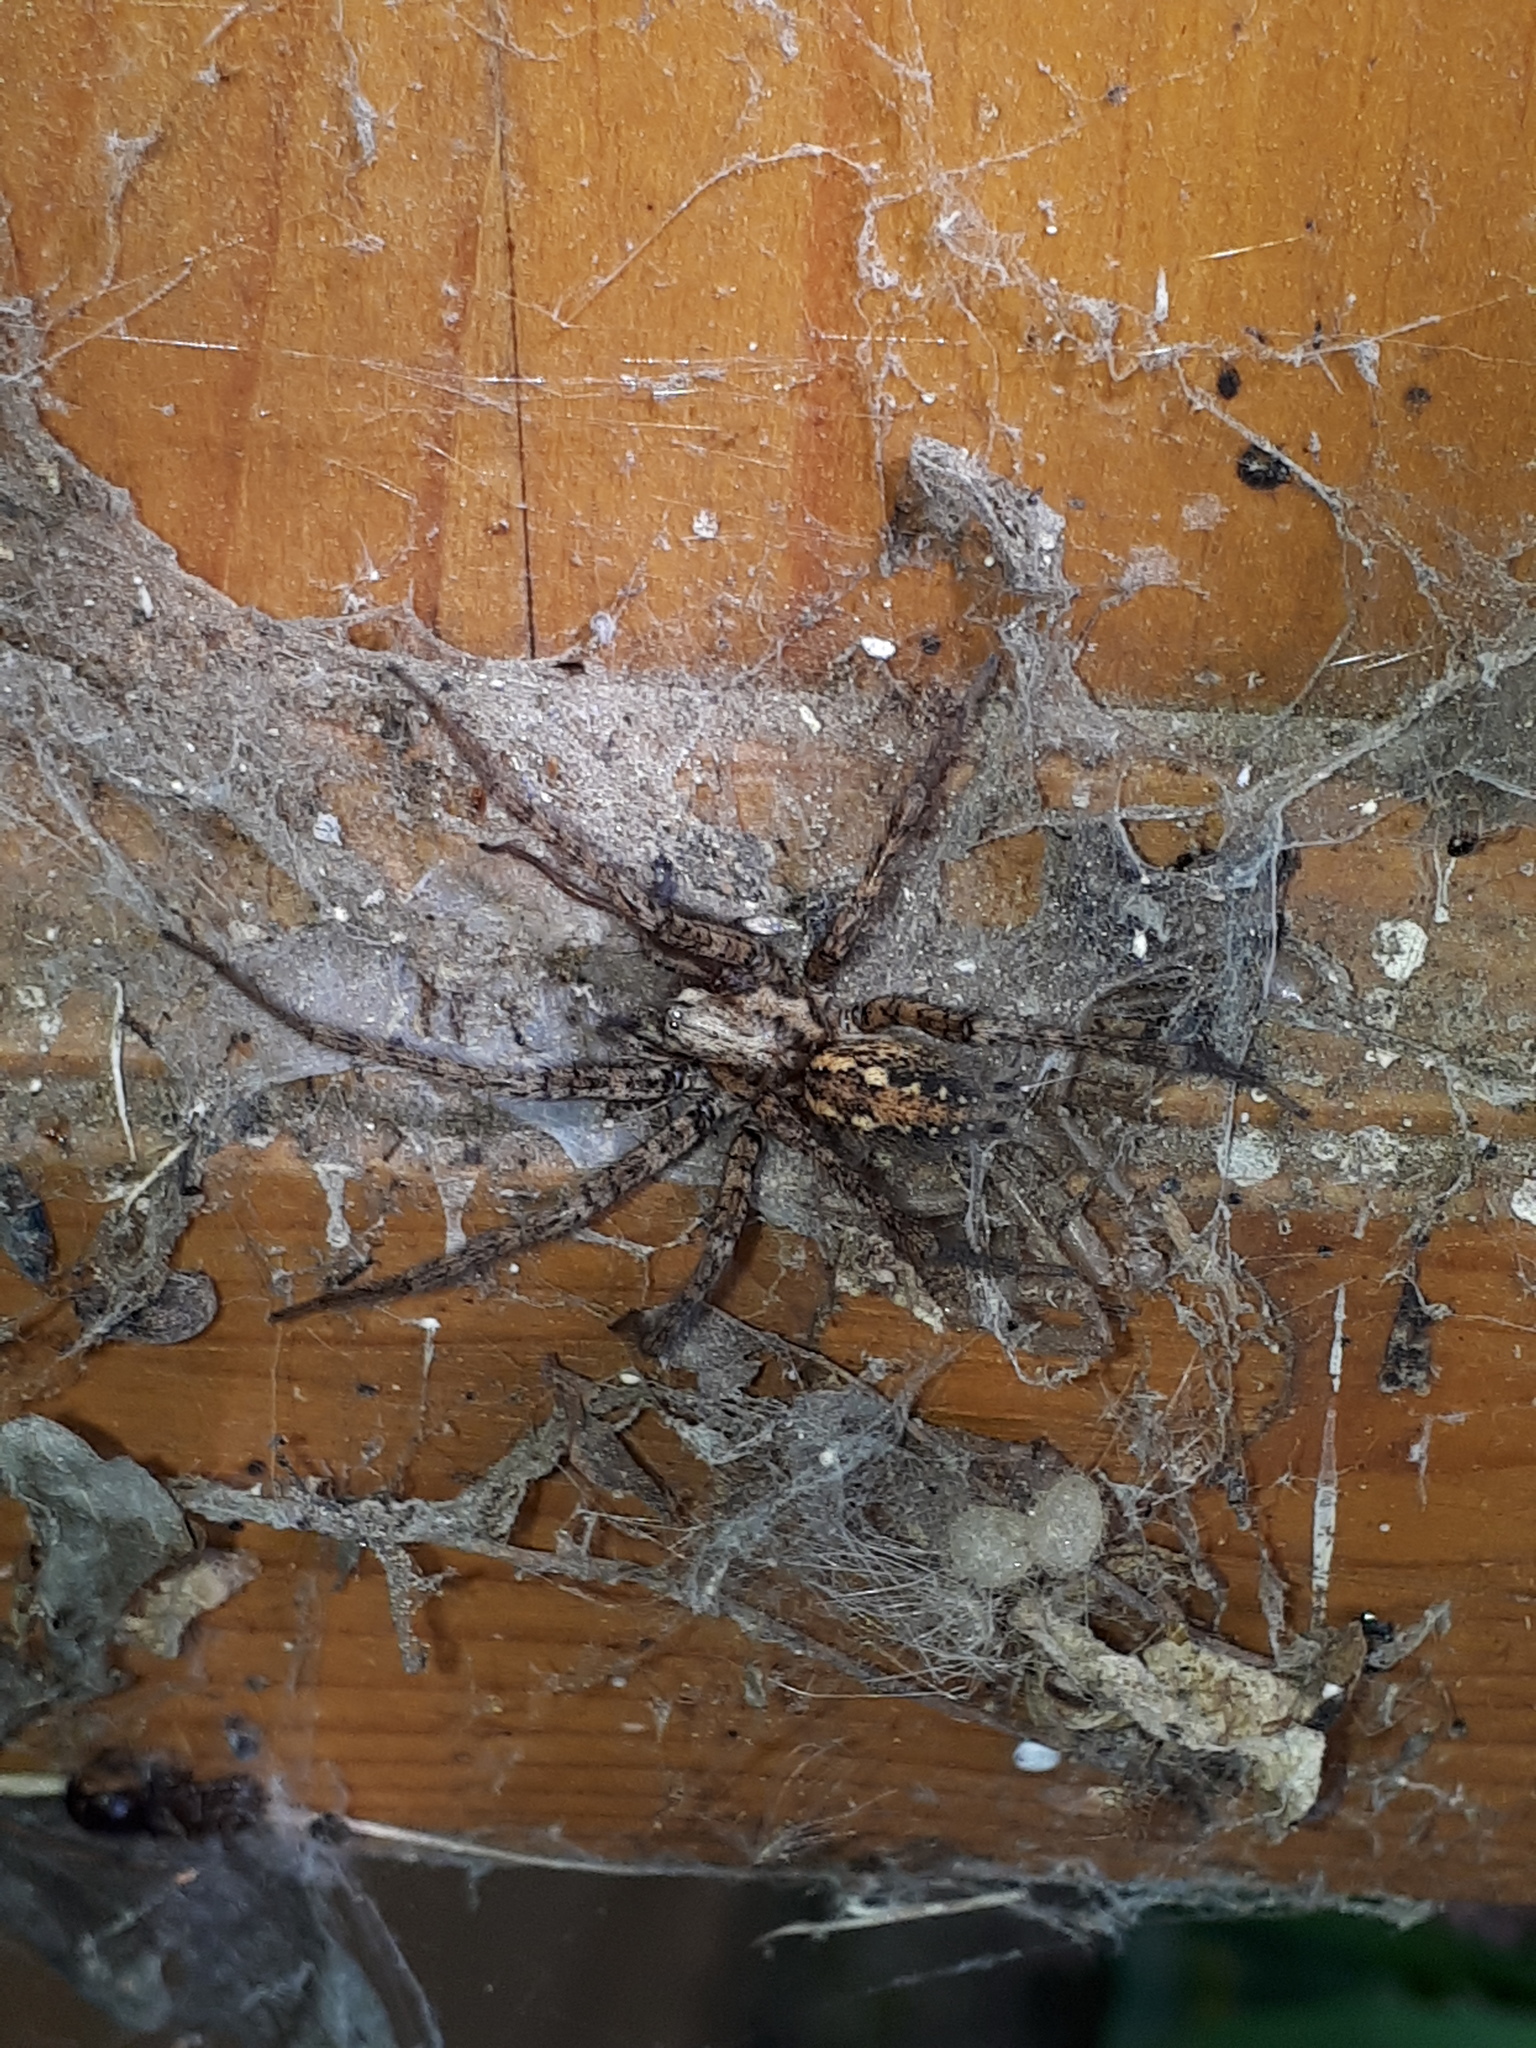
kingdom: Animalia
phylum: Arthropoda
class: Arachnida
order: Araneae
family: Agelenidae
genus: Tegenaria
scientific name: Tegenaria ferruginea
